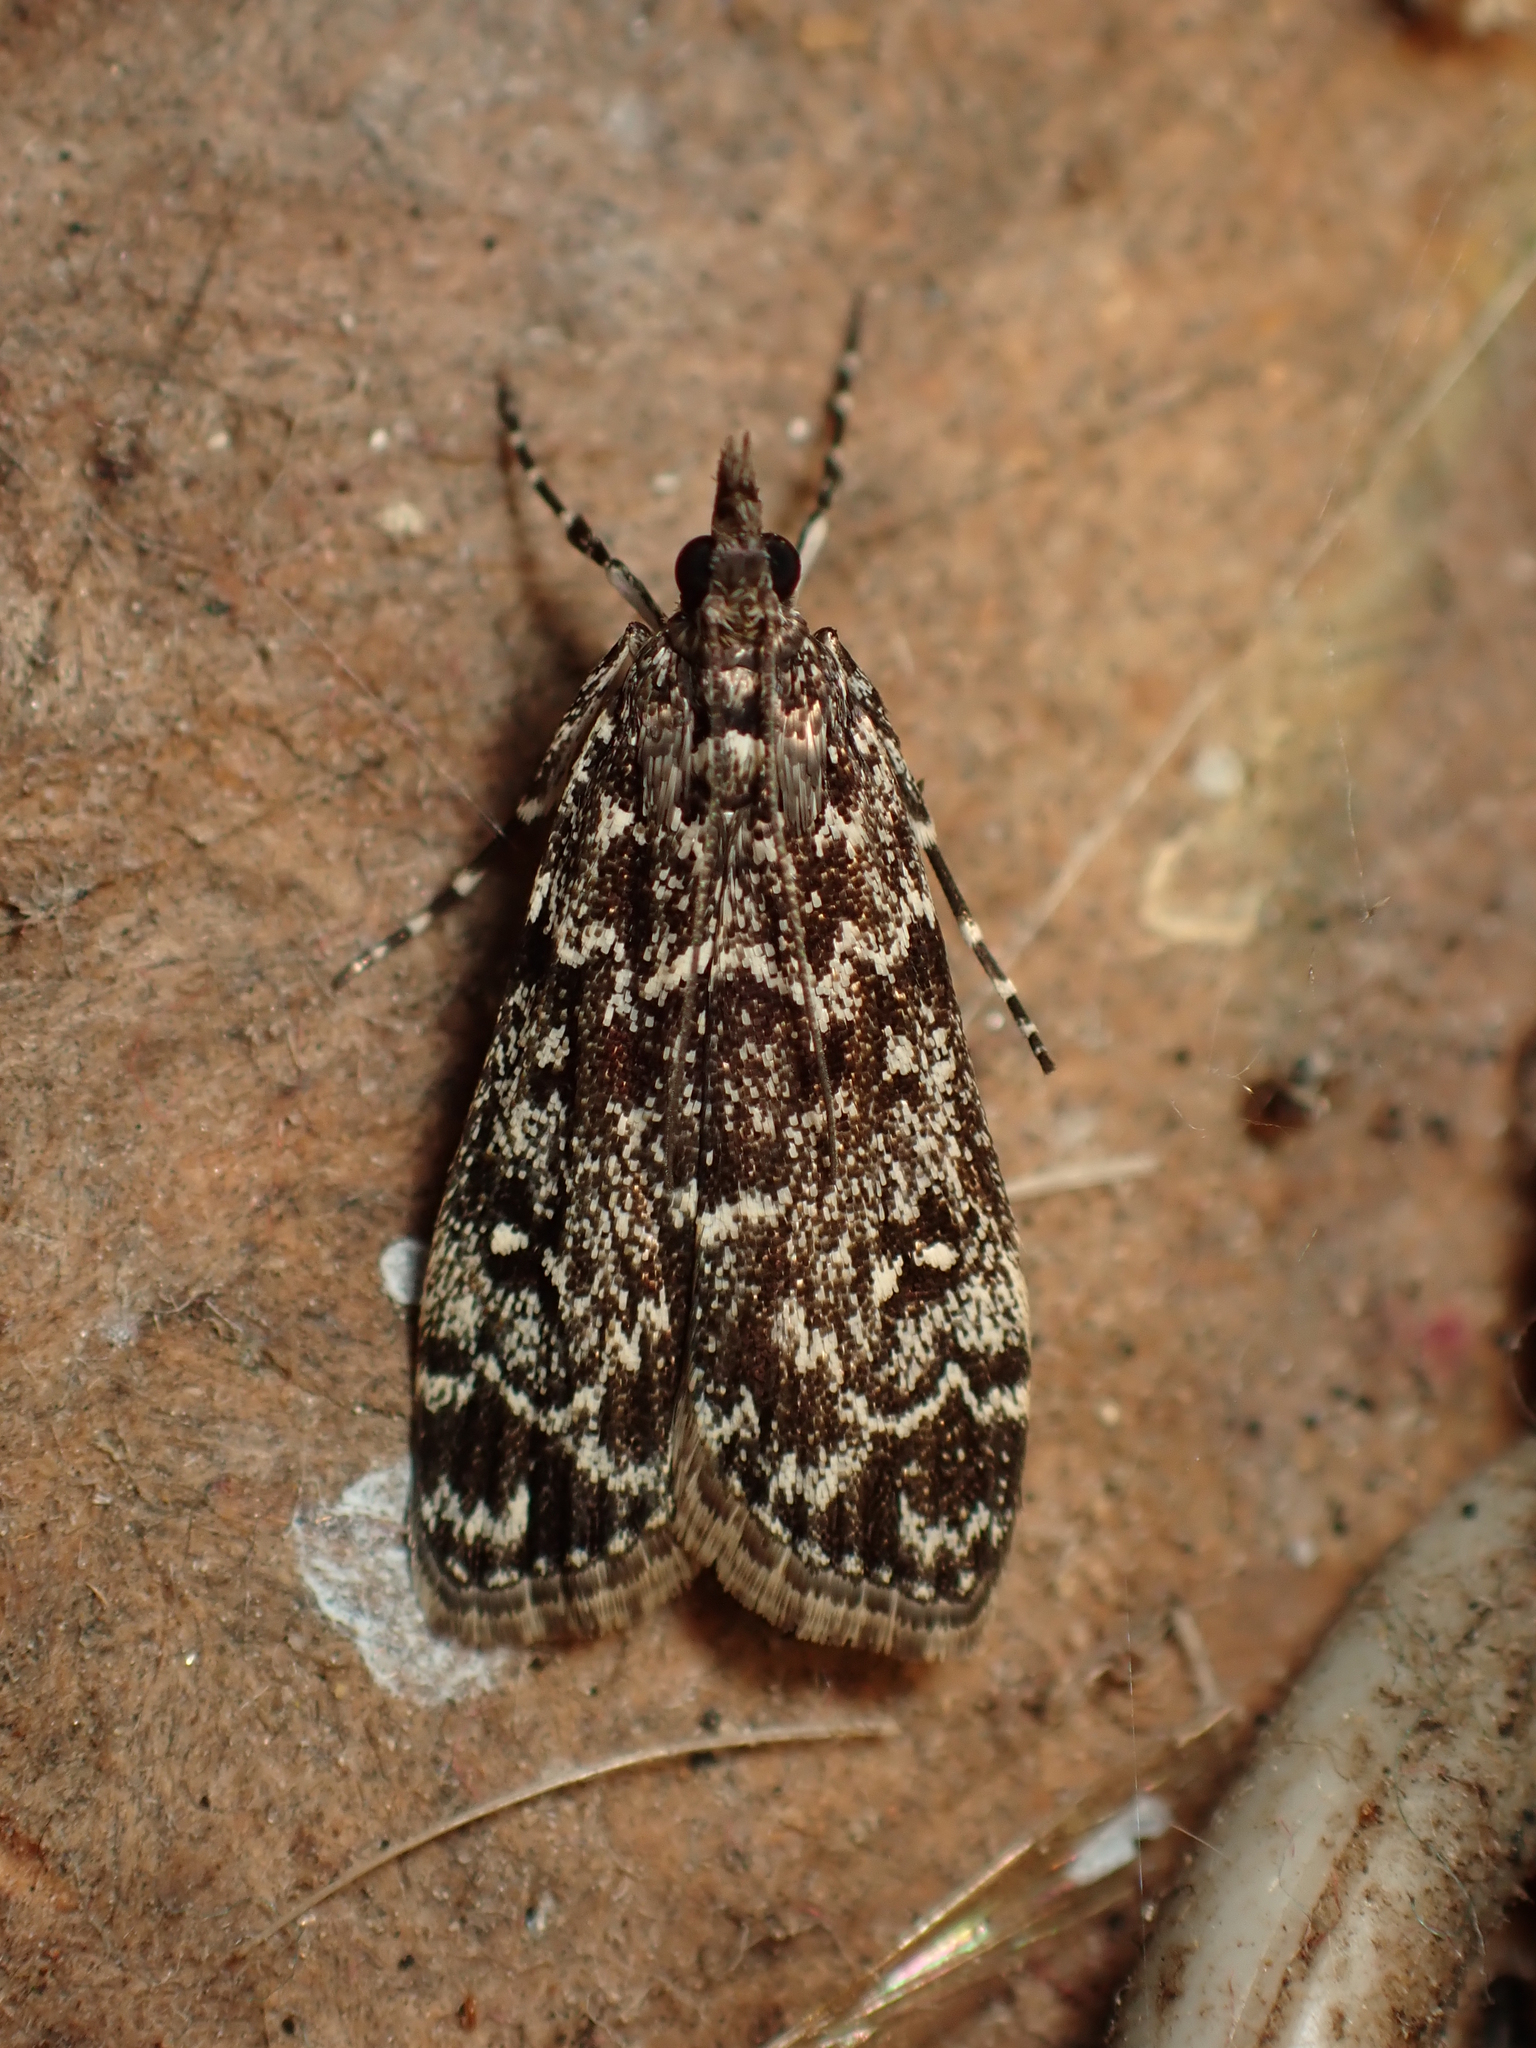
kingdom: Animalia
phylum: Arthropoda
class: Insecta
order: Lepidoptera
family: Crambidae
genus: Eudonia
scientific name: Eudonia philerga
